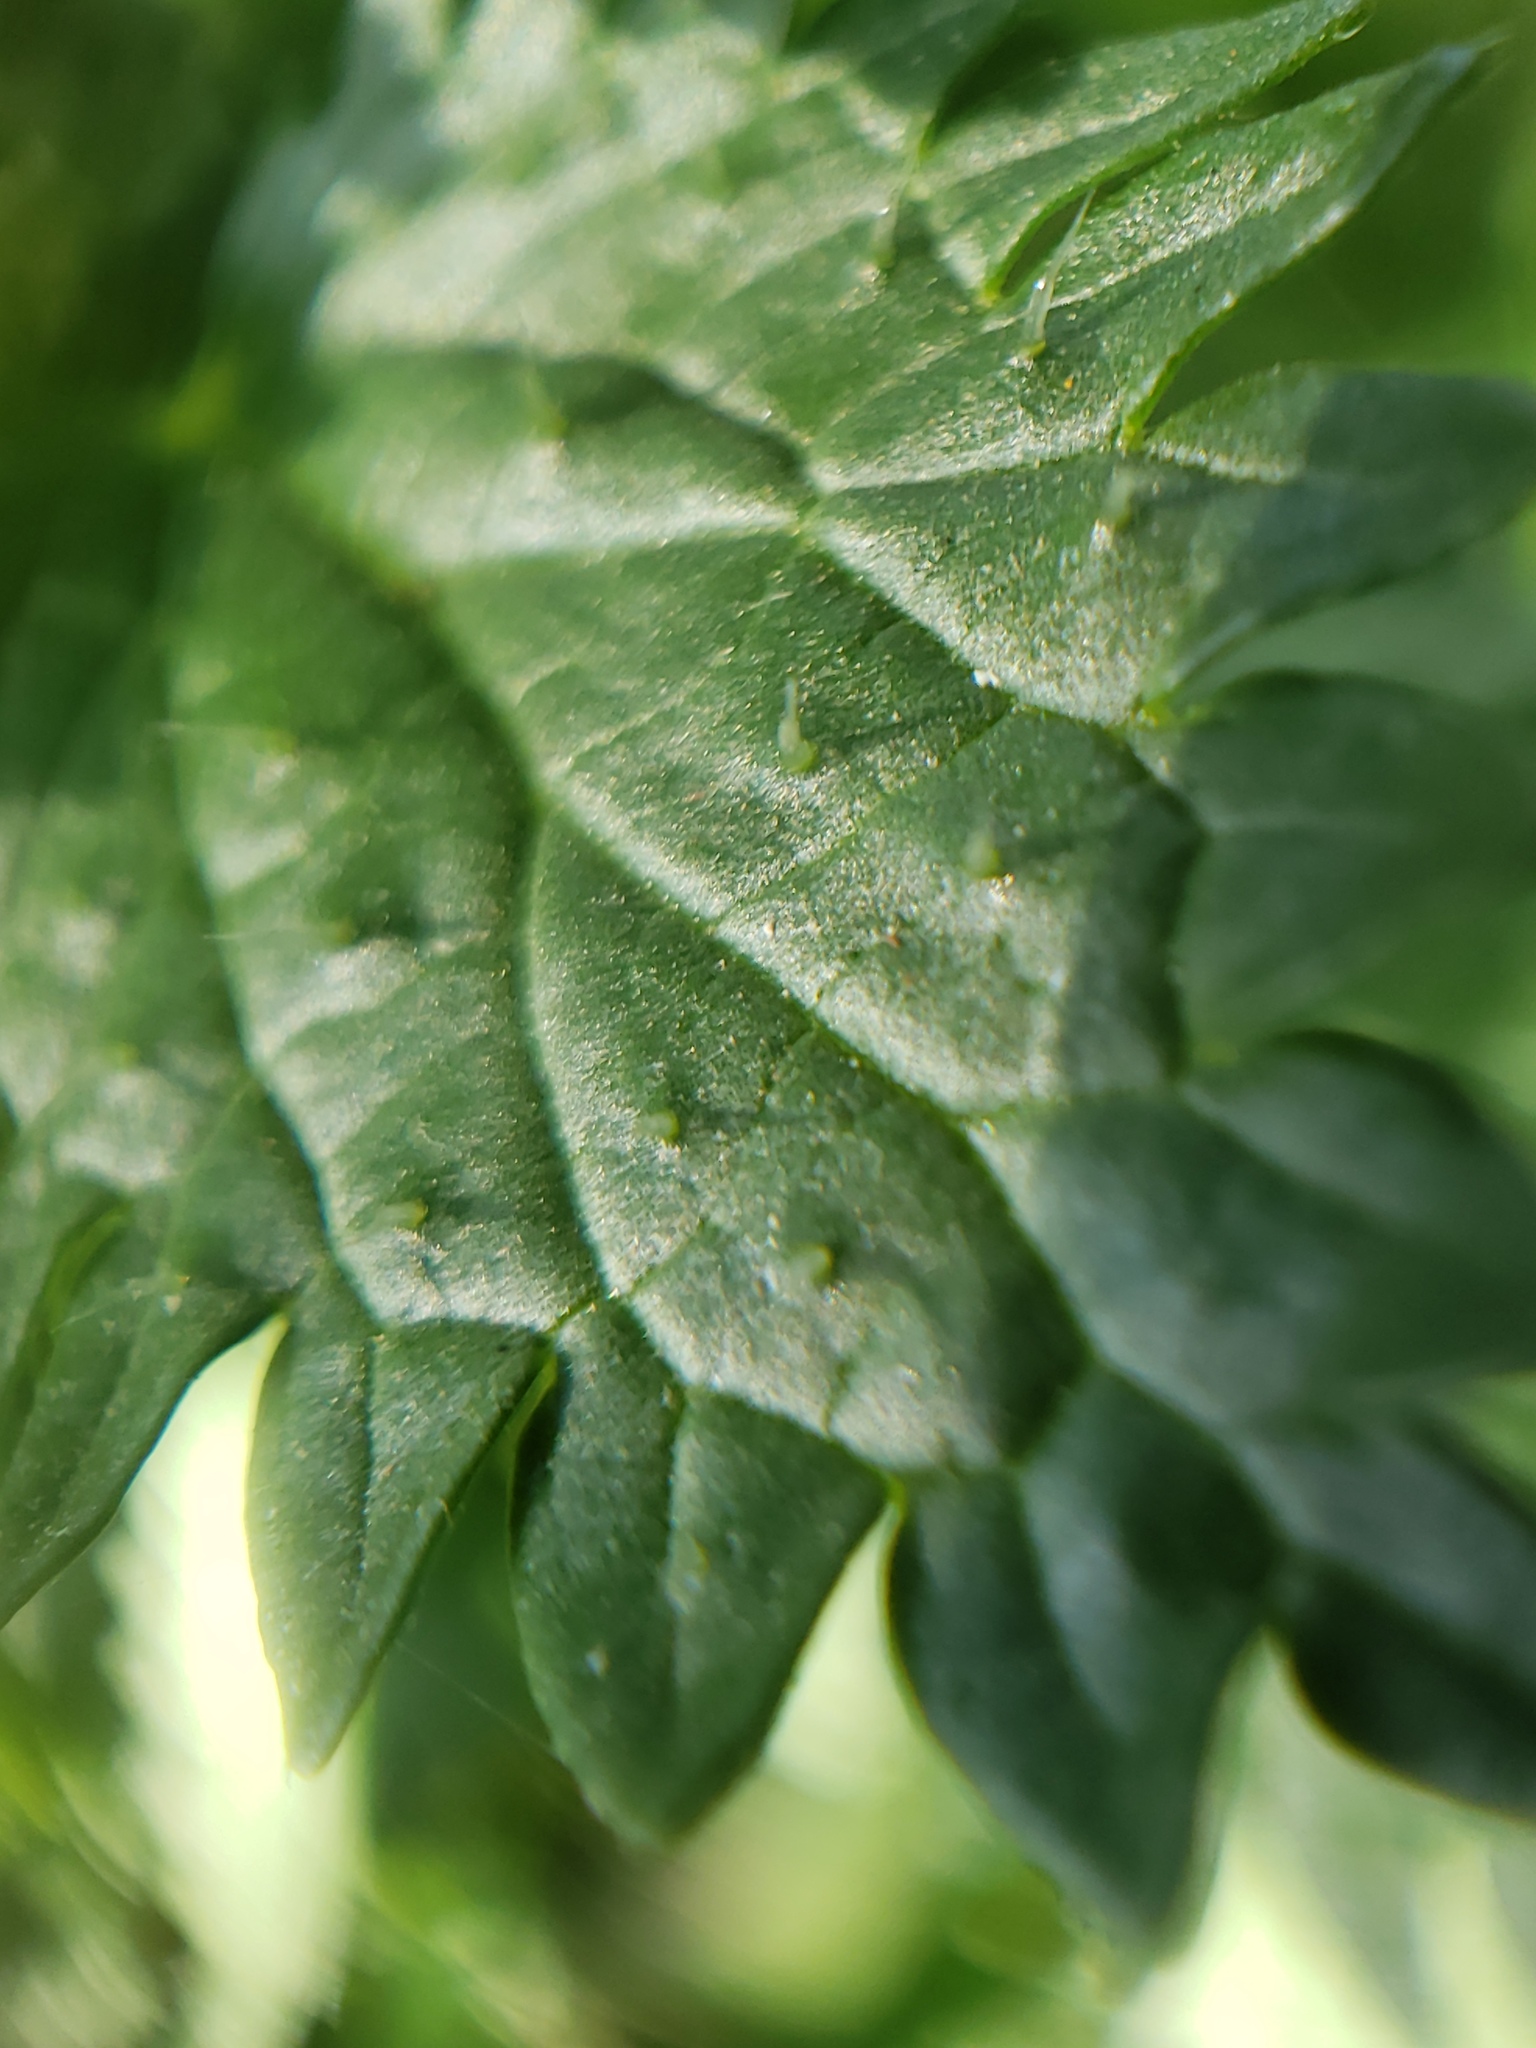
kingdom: Plantae
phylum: Tracheophyta
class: Magnoliopsida
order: Rosales
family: Urticaceae
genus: Urtica
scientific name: Urtica dioica
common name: Common nettle
